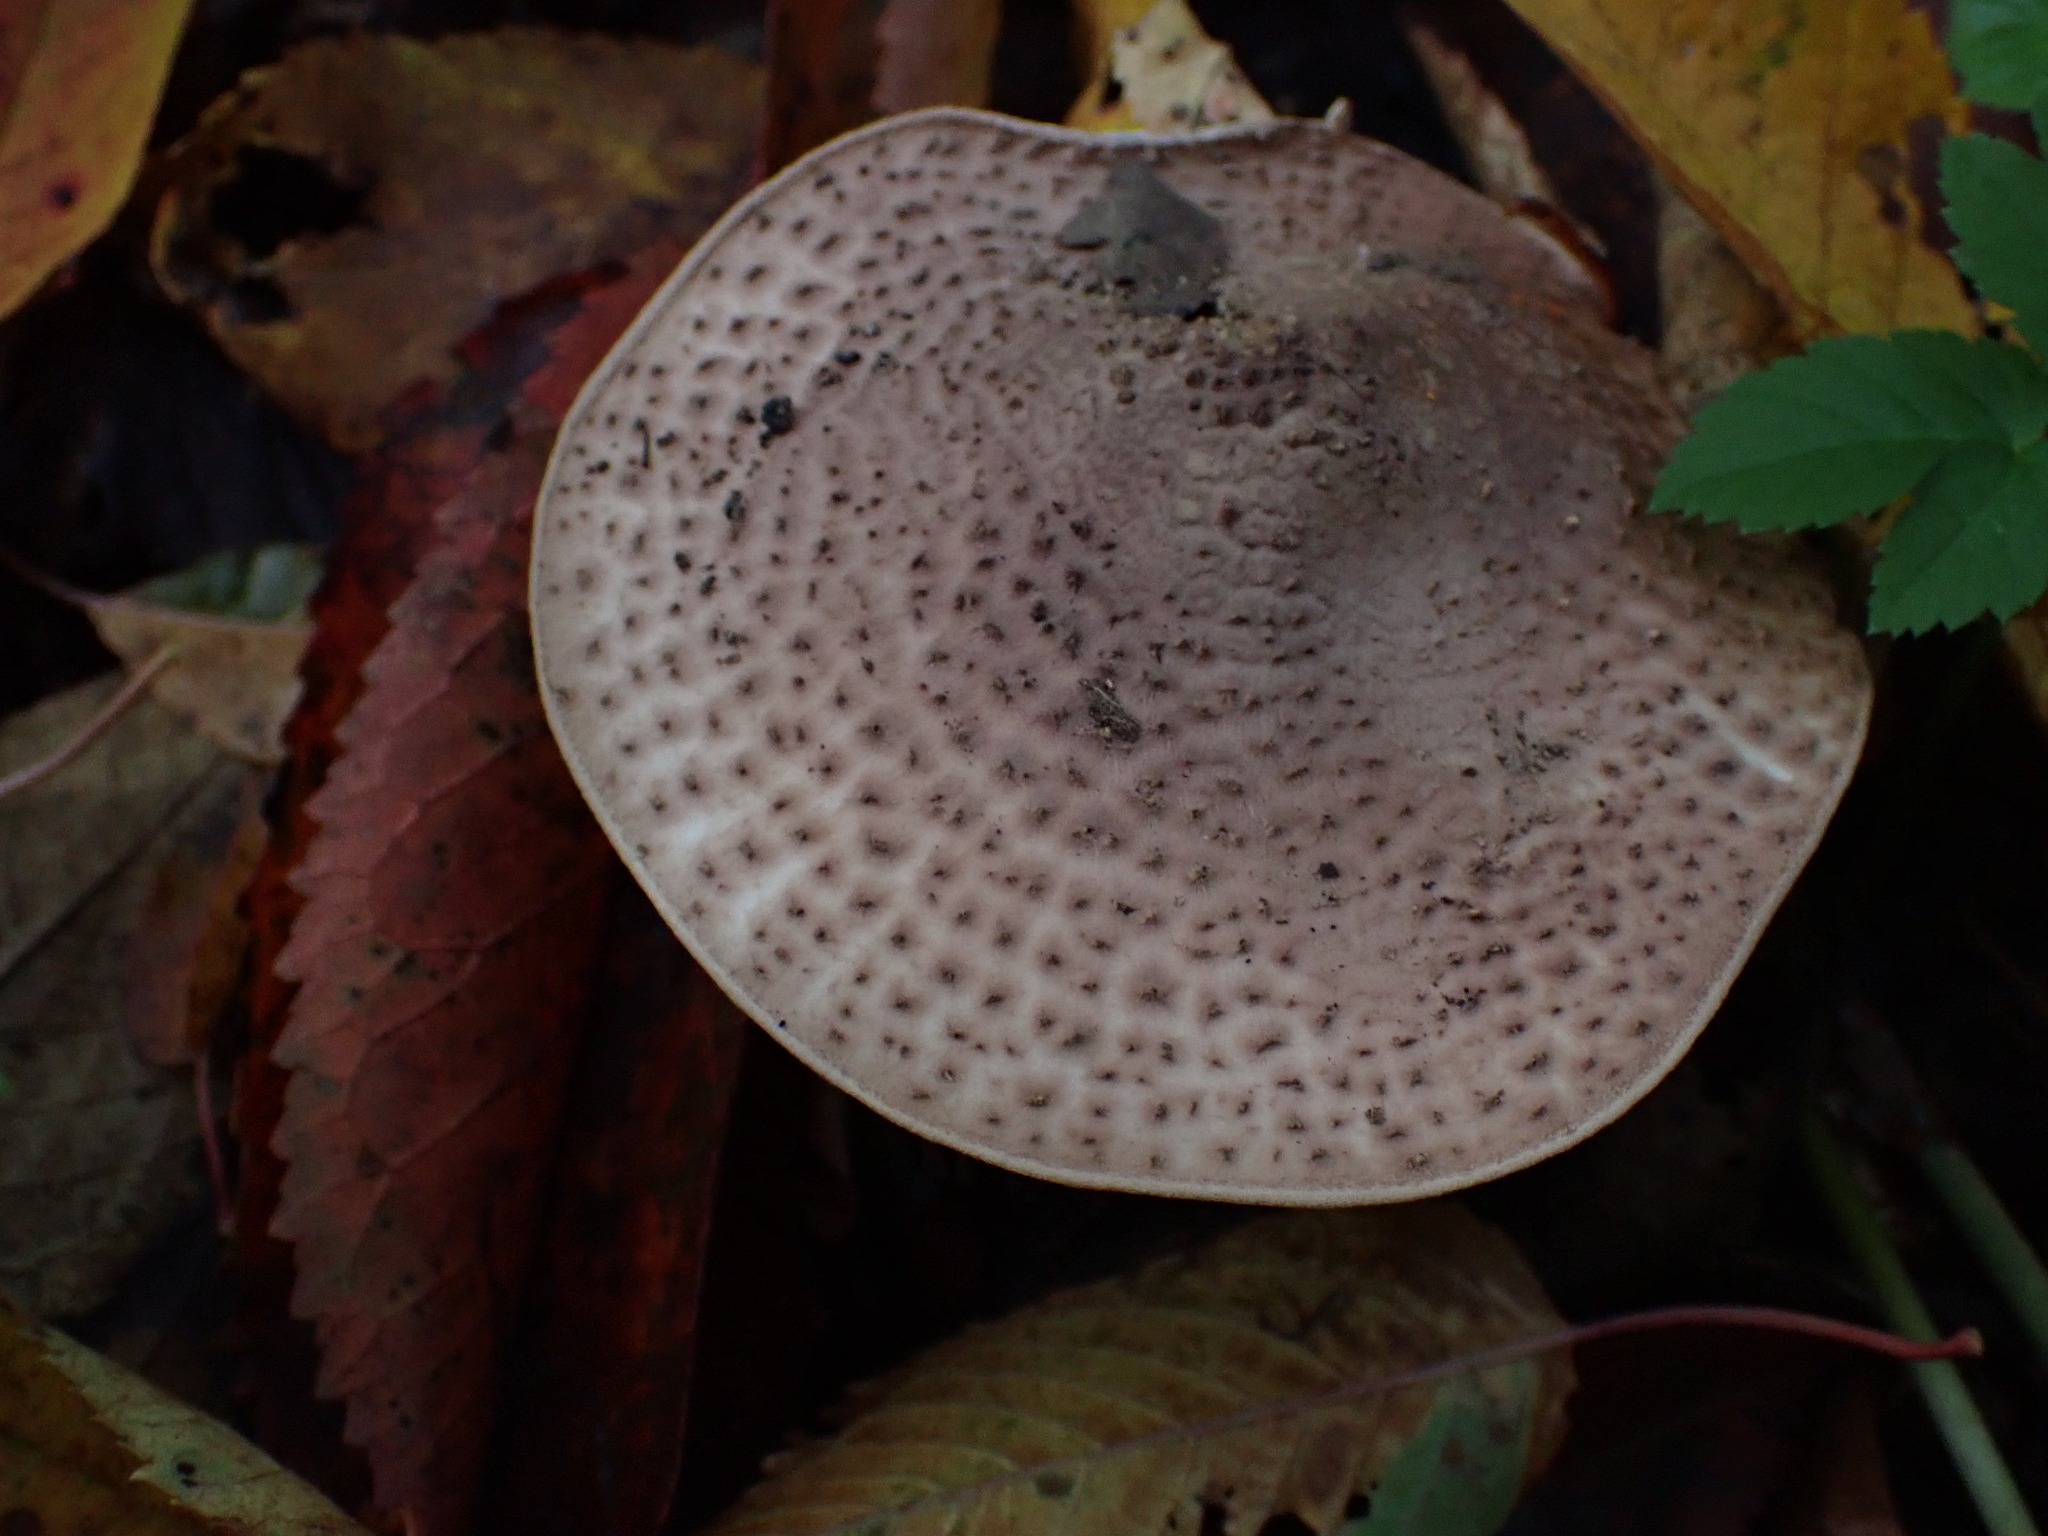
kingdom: Fungi
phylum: Basidiomycota
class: Agaricomycetes
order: Agaricales
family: Agaricaceae
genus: Echinoderma
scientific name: Echinoderma asperum
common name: Freckled dapperling
